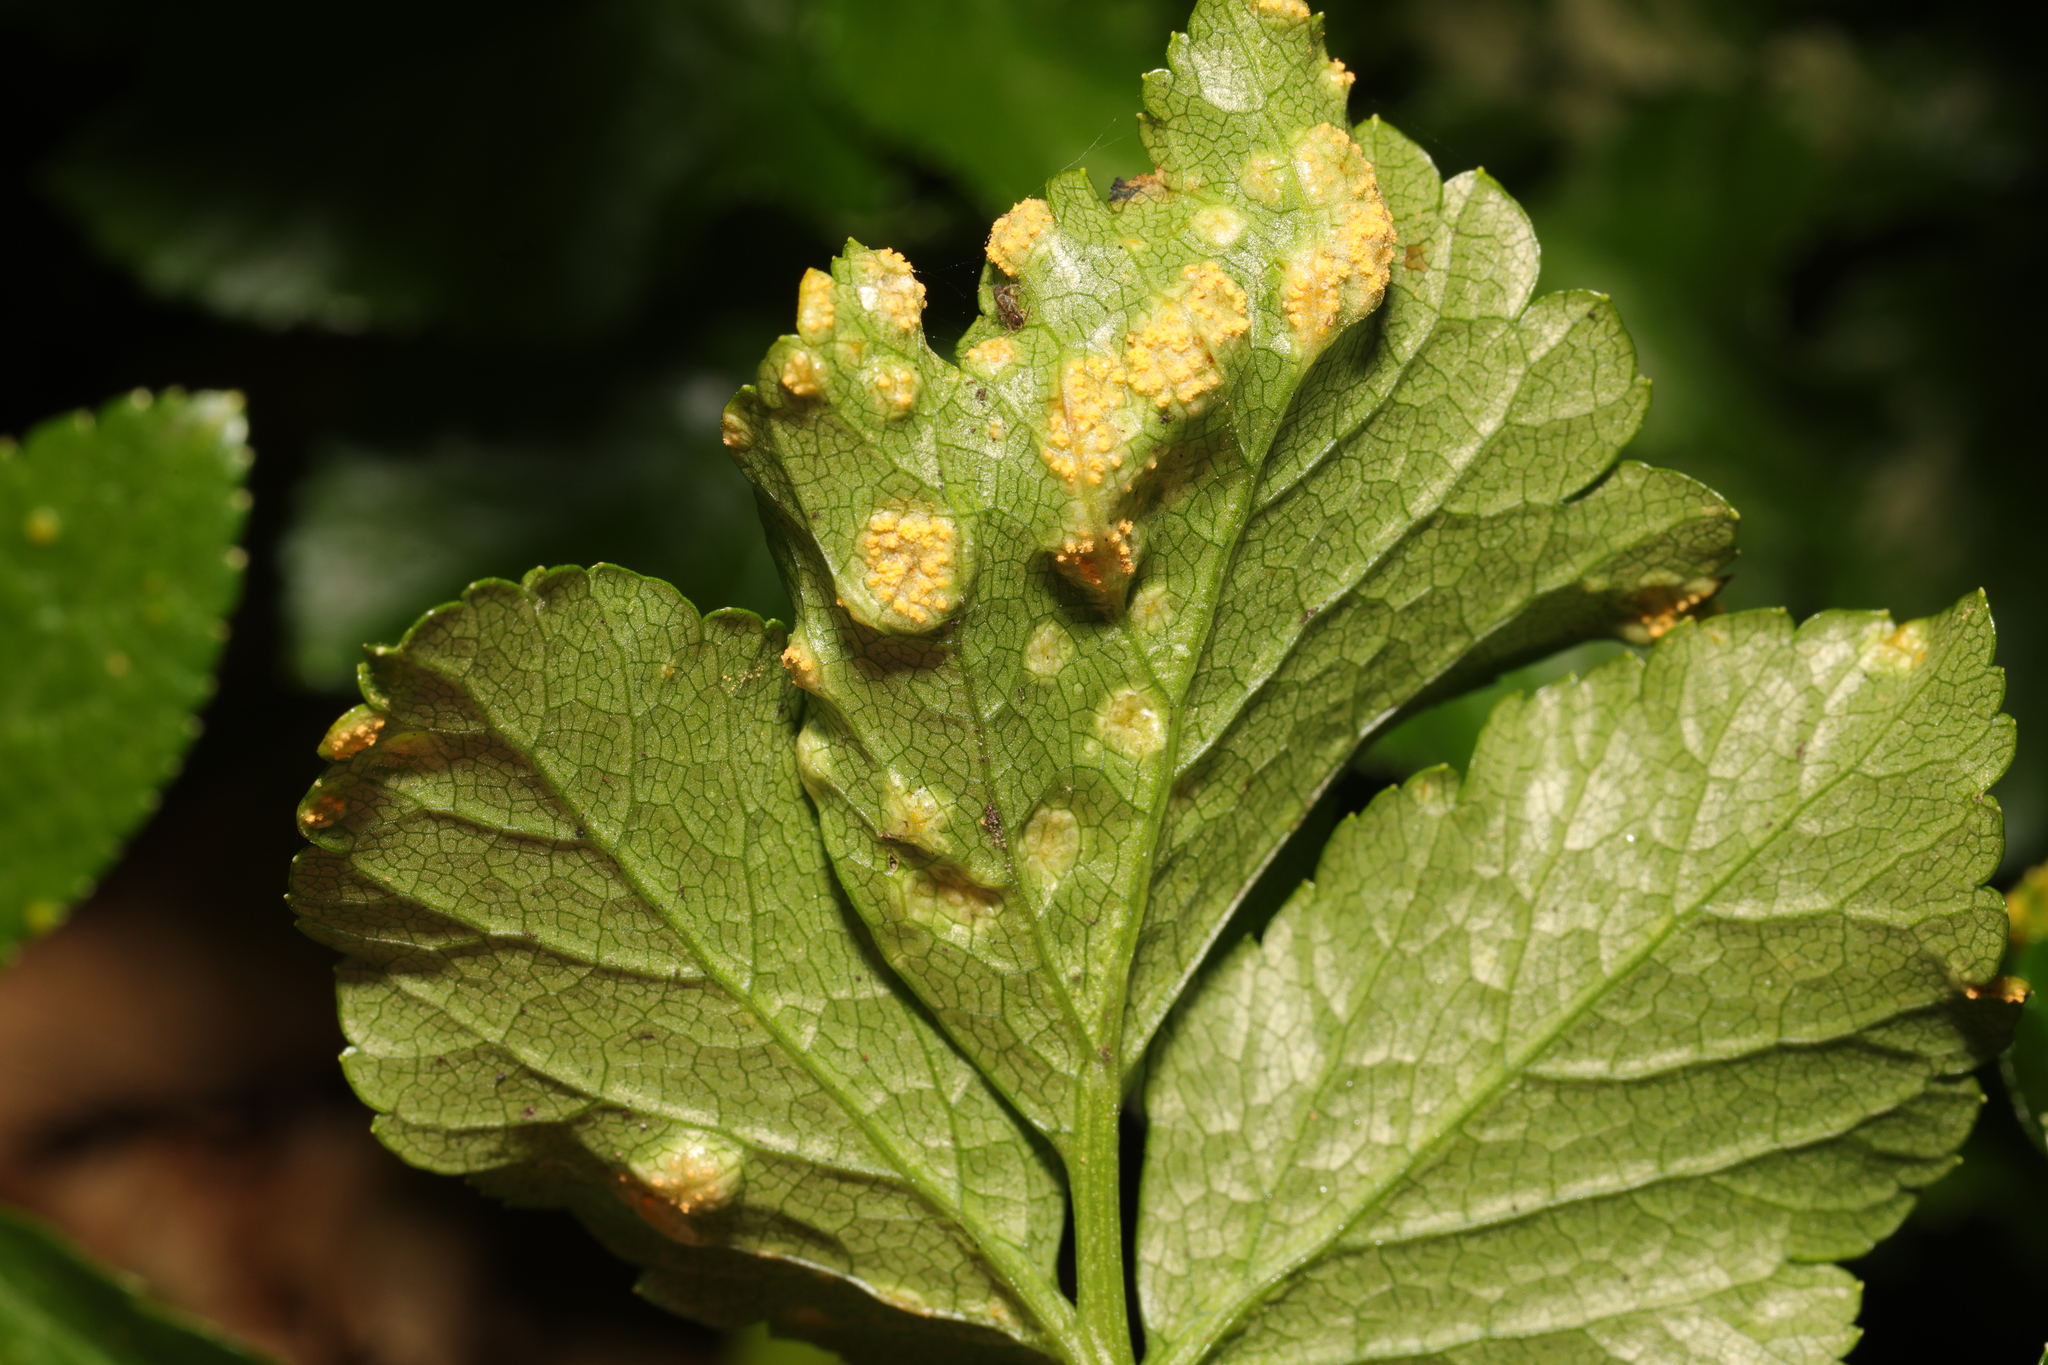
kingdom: Fungi
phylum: Basidiomycota
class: Pucciniomycetes
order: Pucciniales
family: Pucciniaceae
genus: Puccinia
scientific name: Puccinia smyrnii
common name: Alexanders rust
